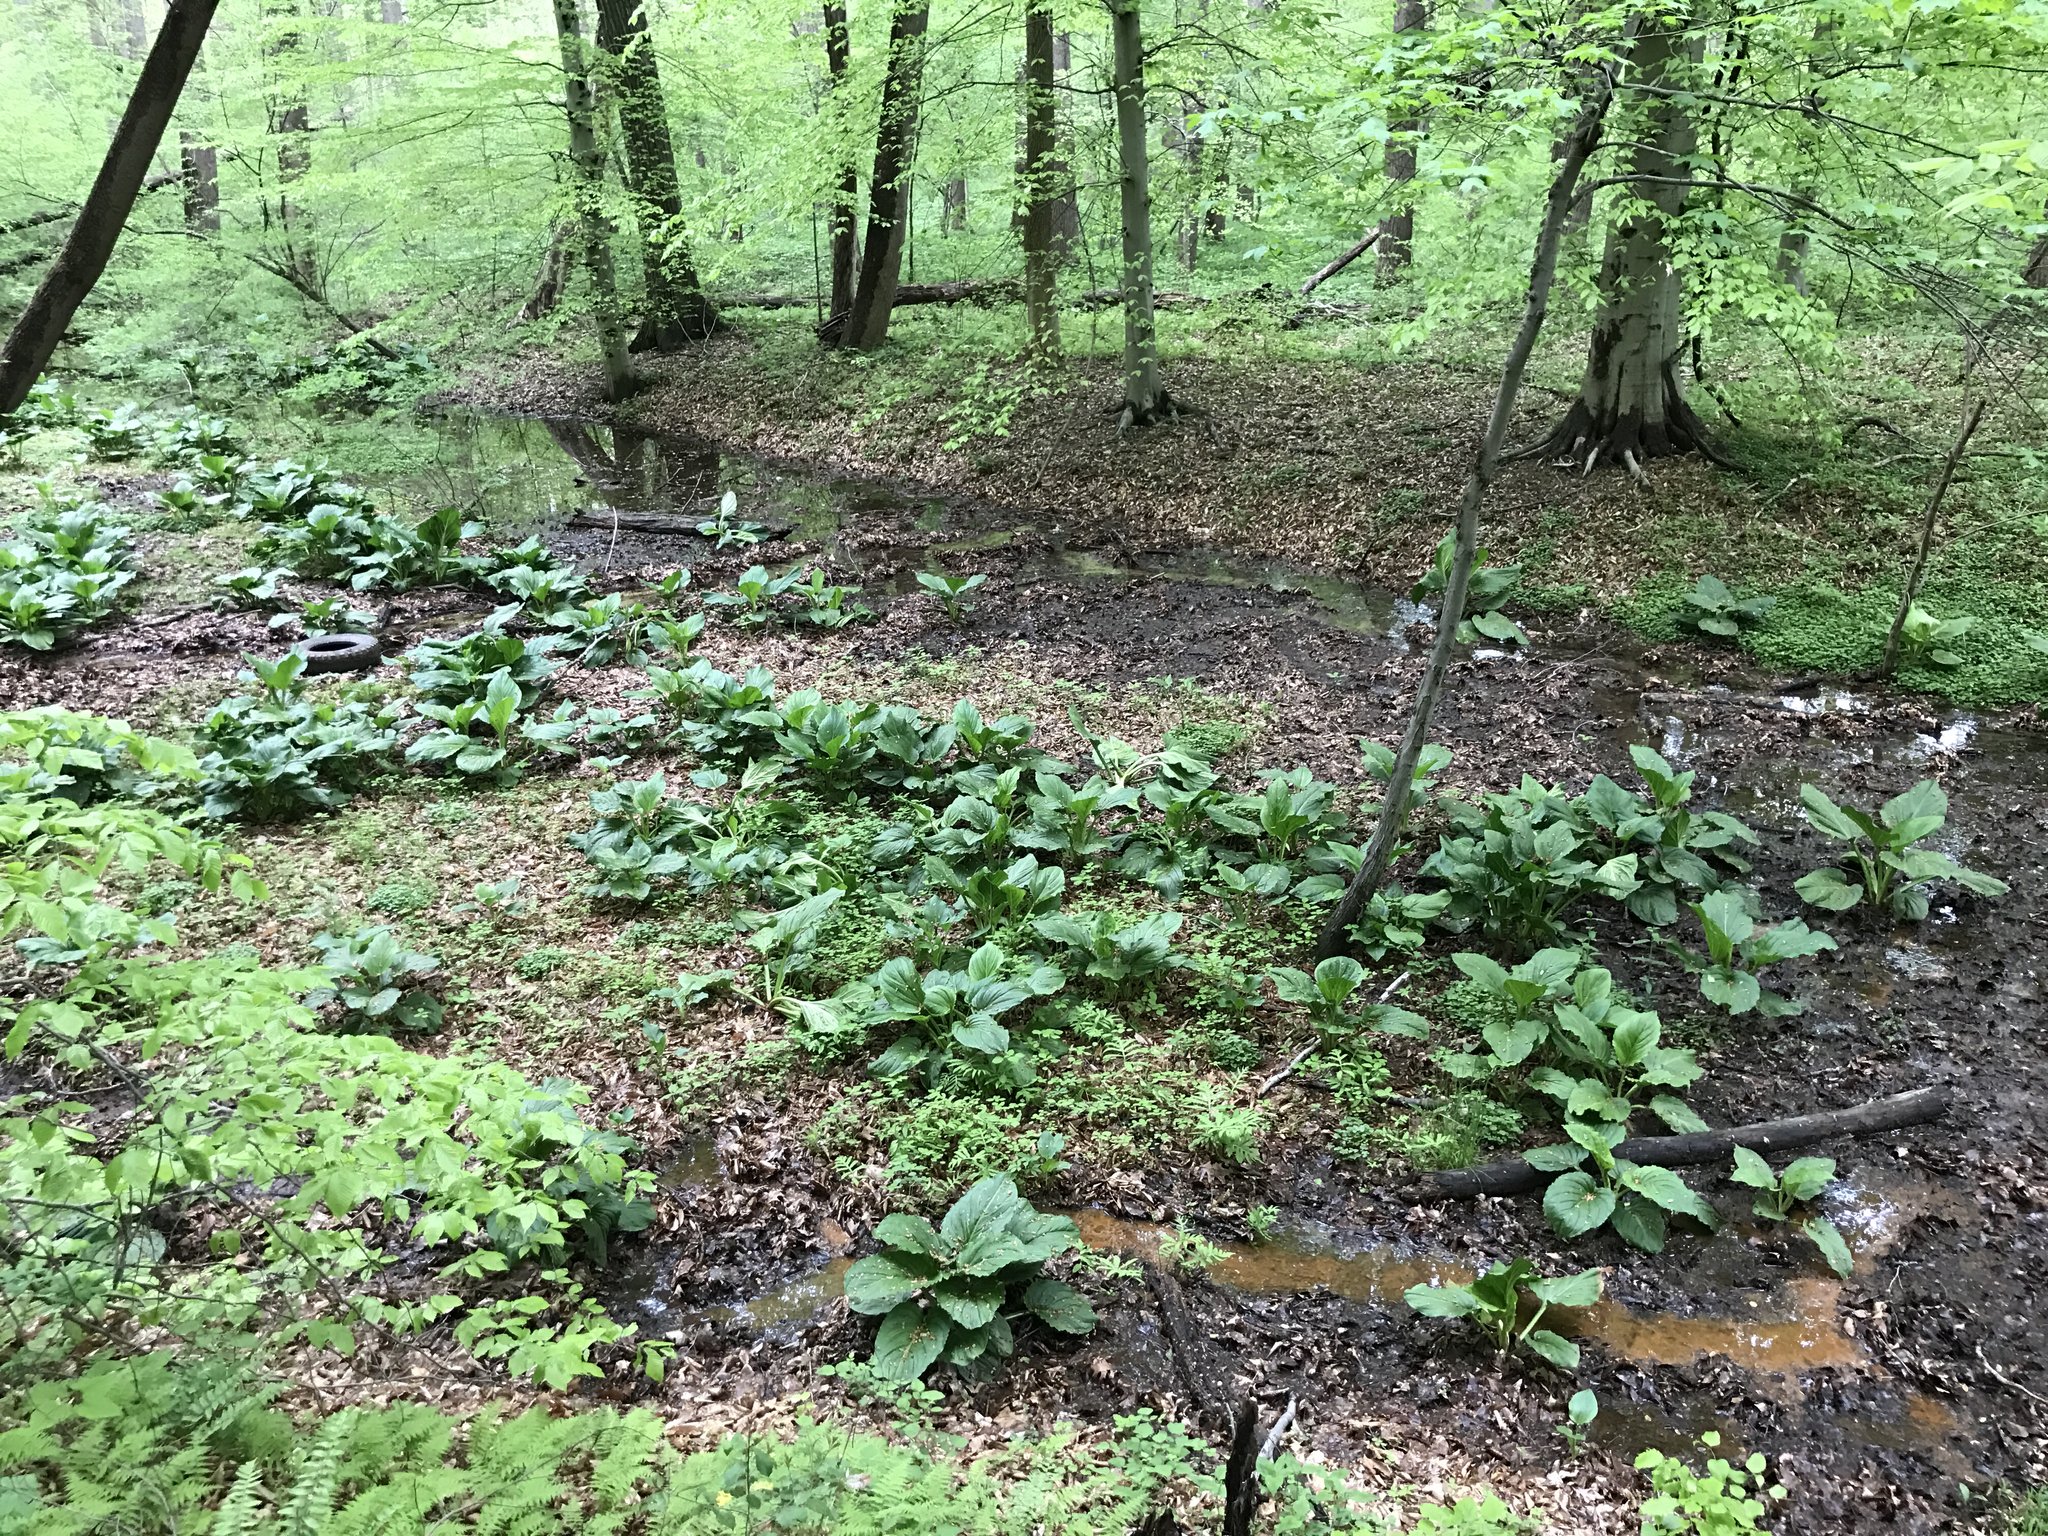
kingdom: Plantae
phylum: Tracheophyta
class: Liliopsida
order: Alismatales
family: Araceae
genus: Symplocarpus
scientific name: Symplocarpus foetidus
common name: Eastern skunk cabbage
